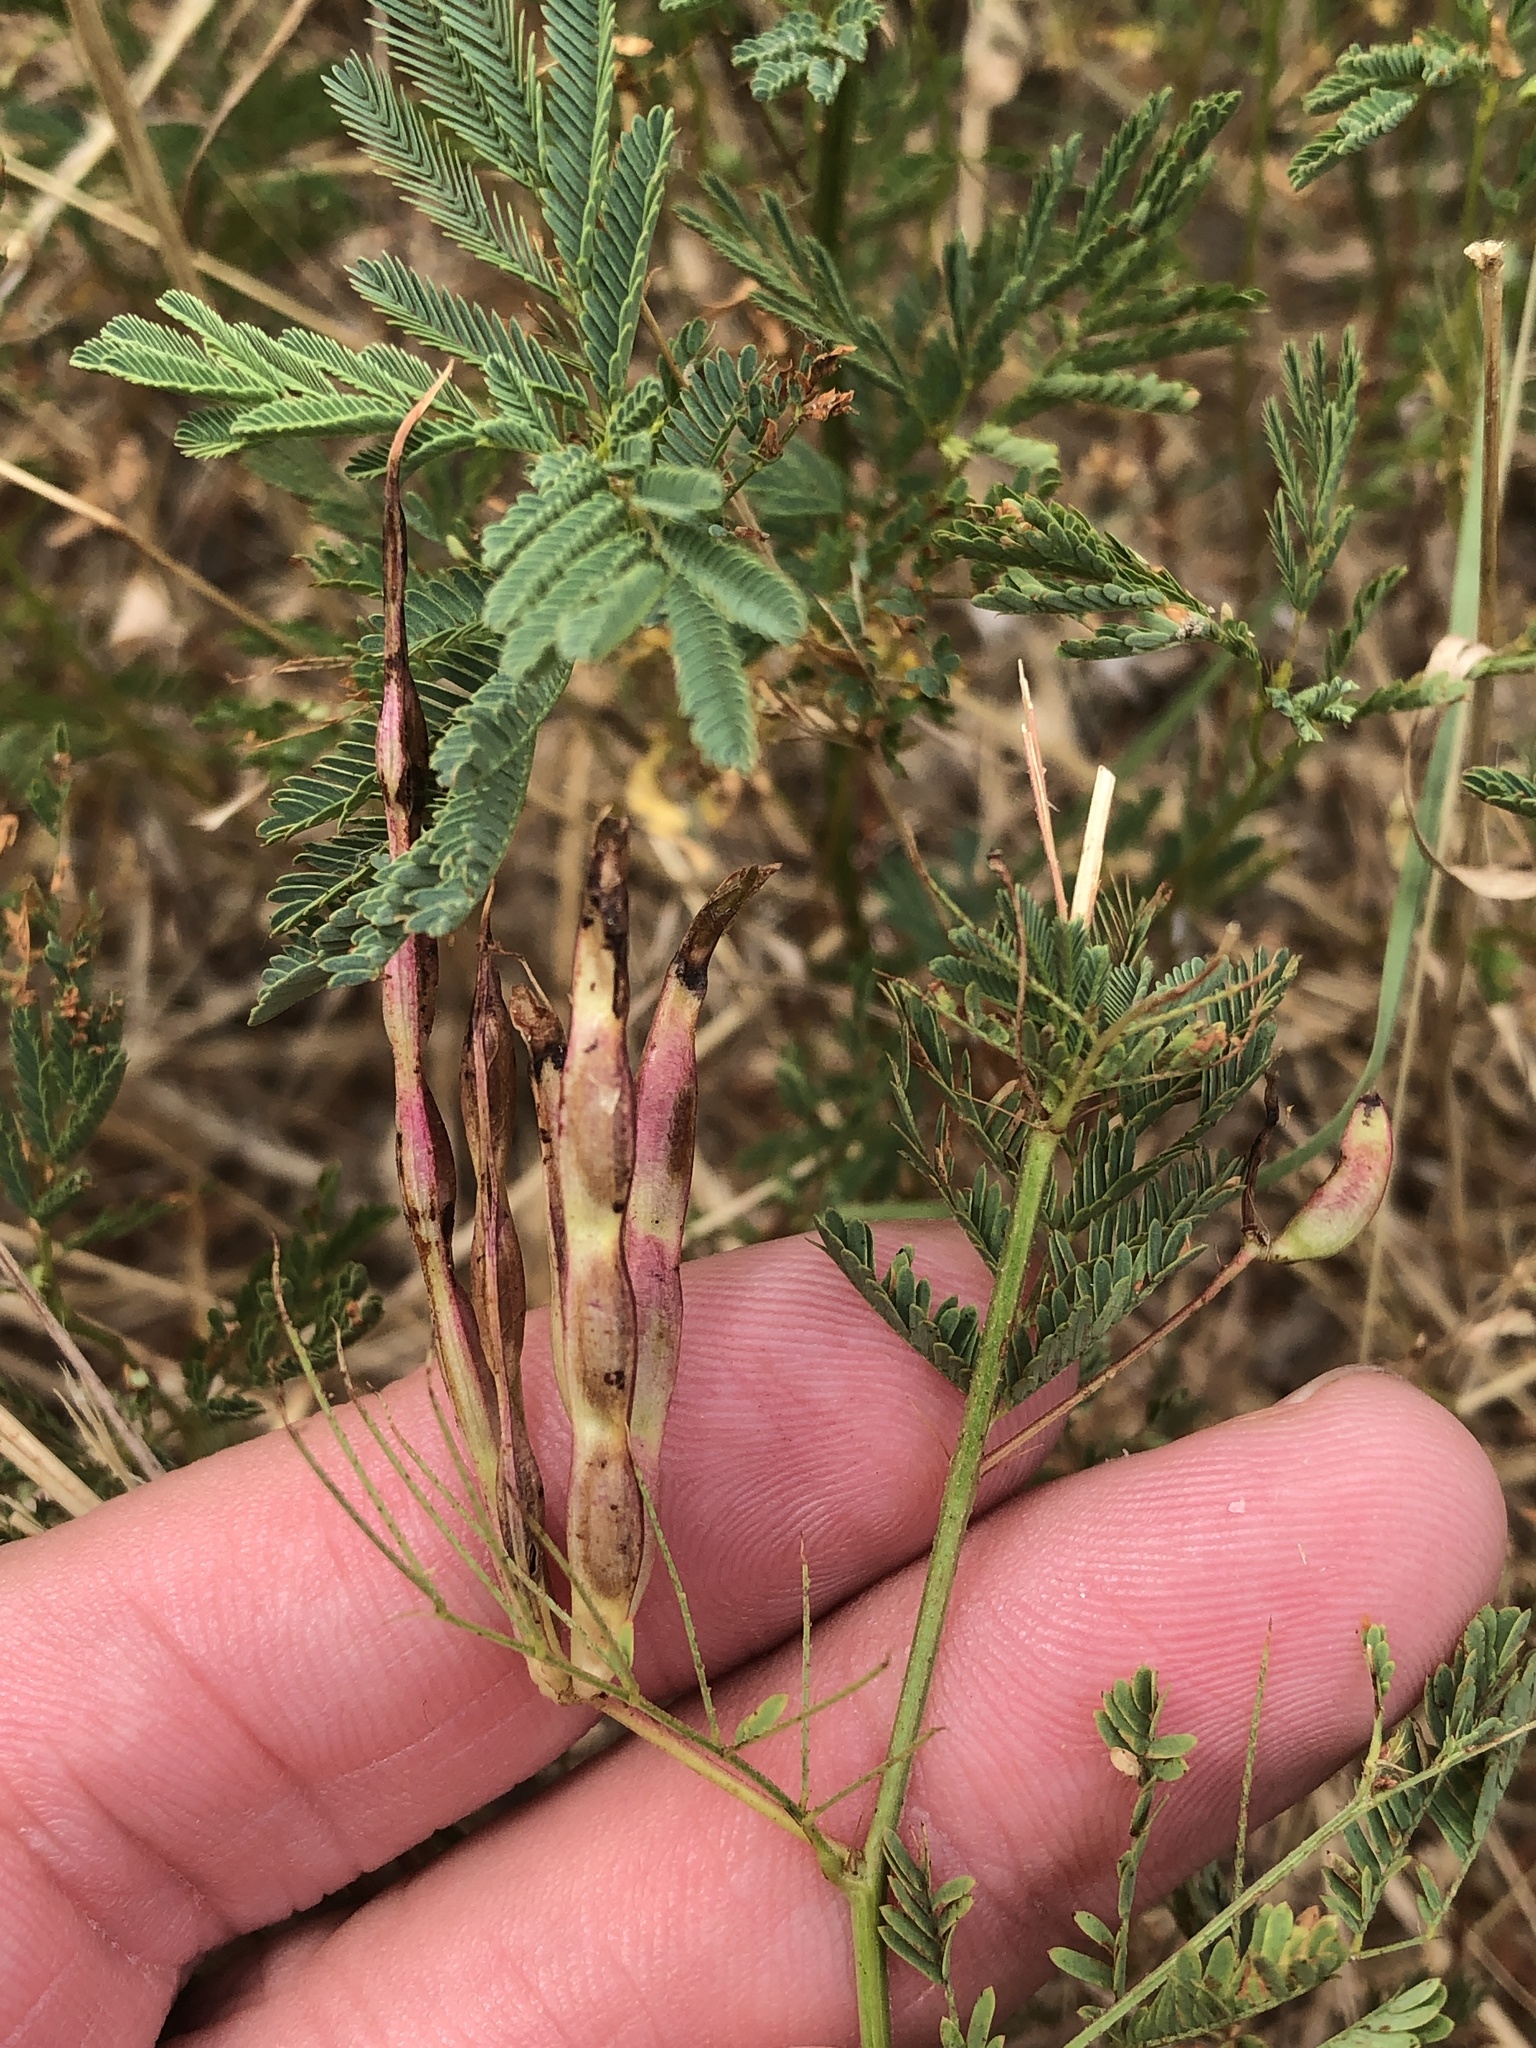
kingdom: Plantae
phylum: Tracheophyta
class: Magnoliopsida
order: Fabales
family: Fabaceae
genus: Desmanthus
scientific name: Desmanthus leptolobus
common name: Prairie-mimosa
